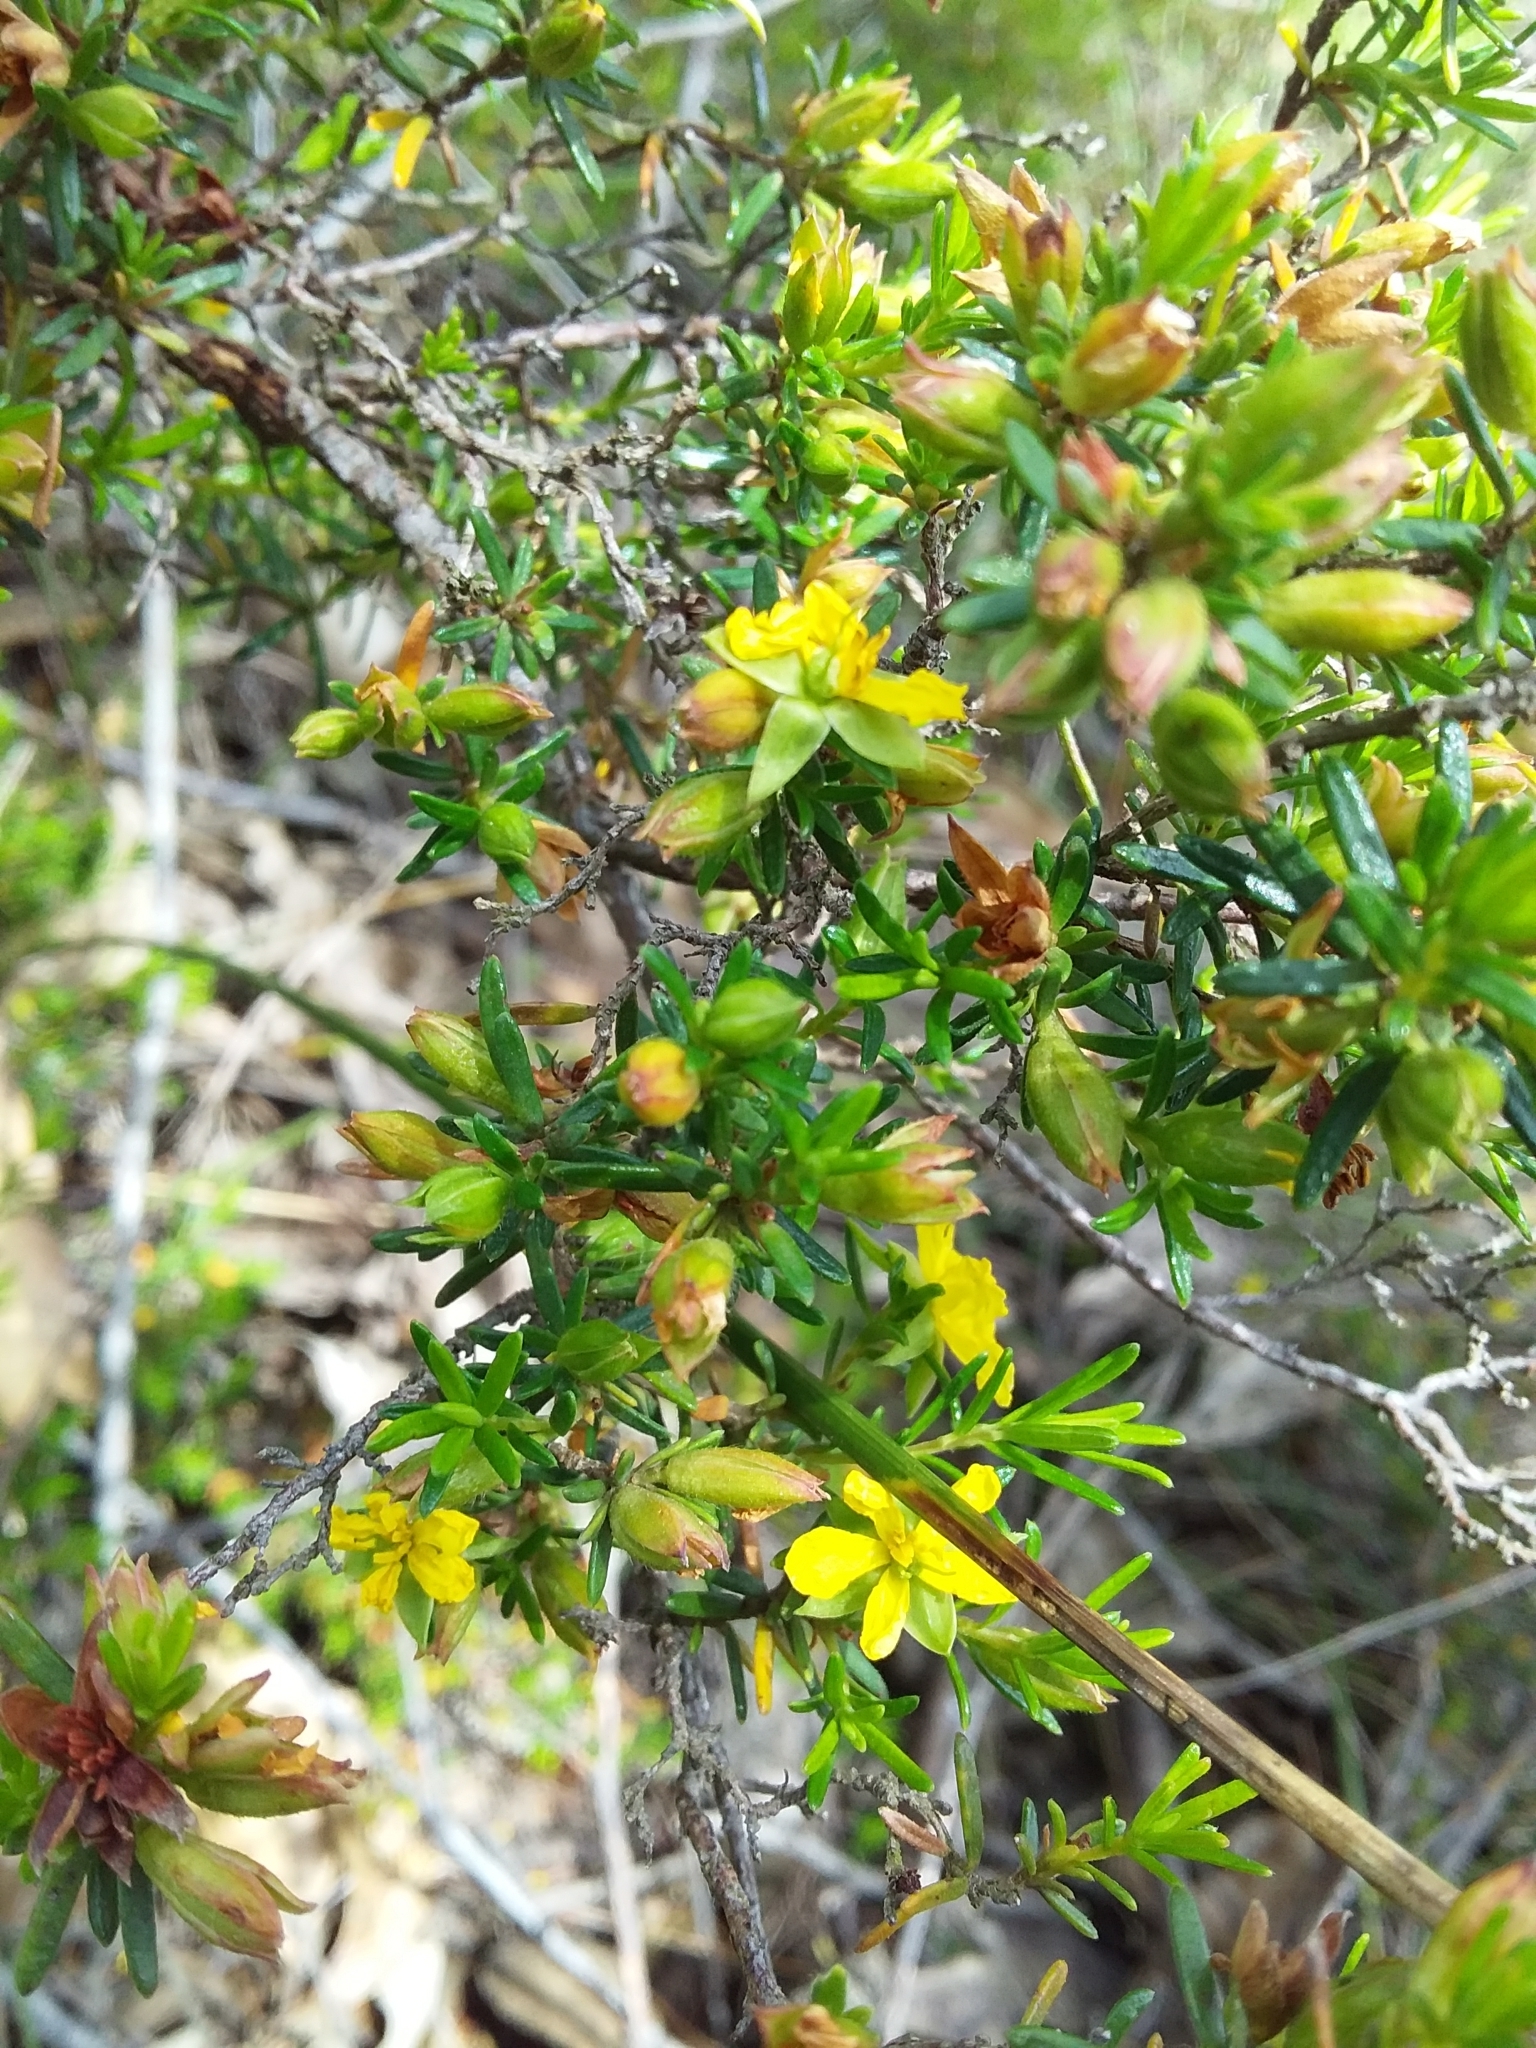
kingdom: Plantae
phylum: Tracheophyta
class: Magnoliopsida
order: Dilleniales
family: Dilleniaceae
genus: Hibbertia
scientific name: Hibbertia riparia
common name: Erect guinea-flower
